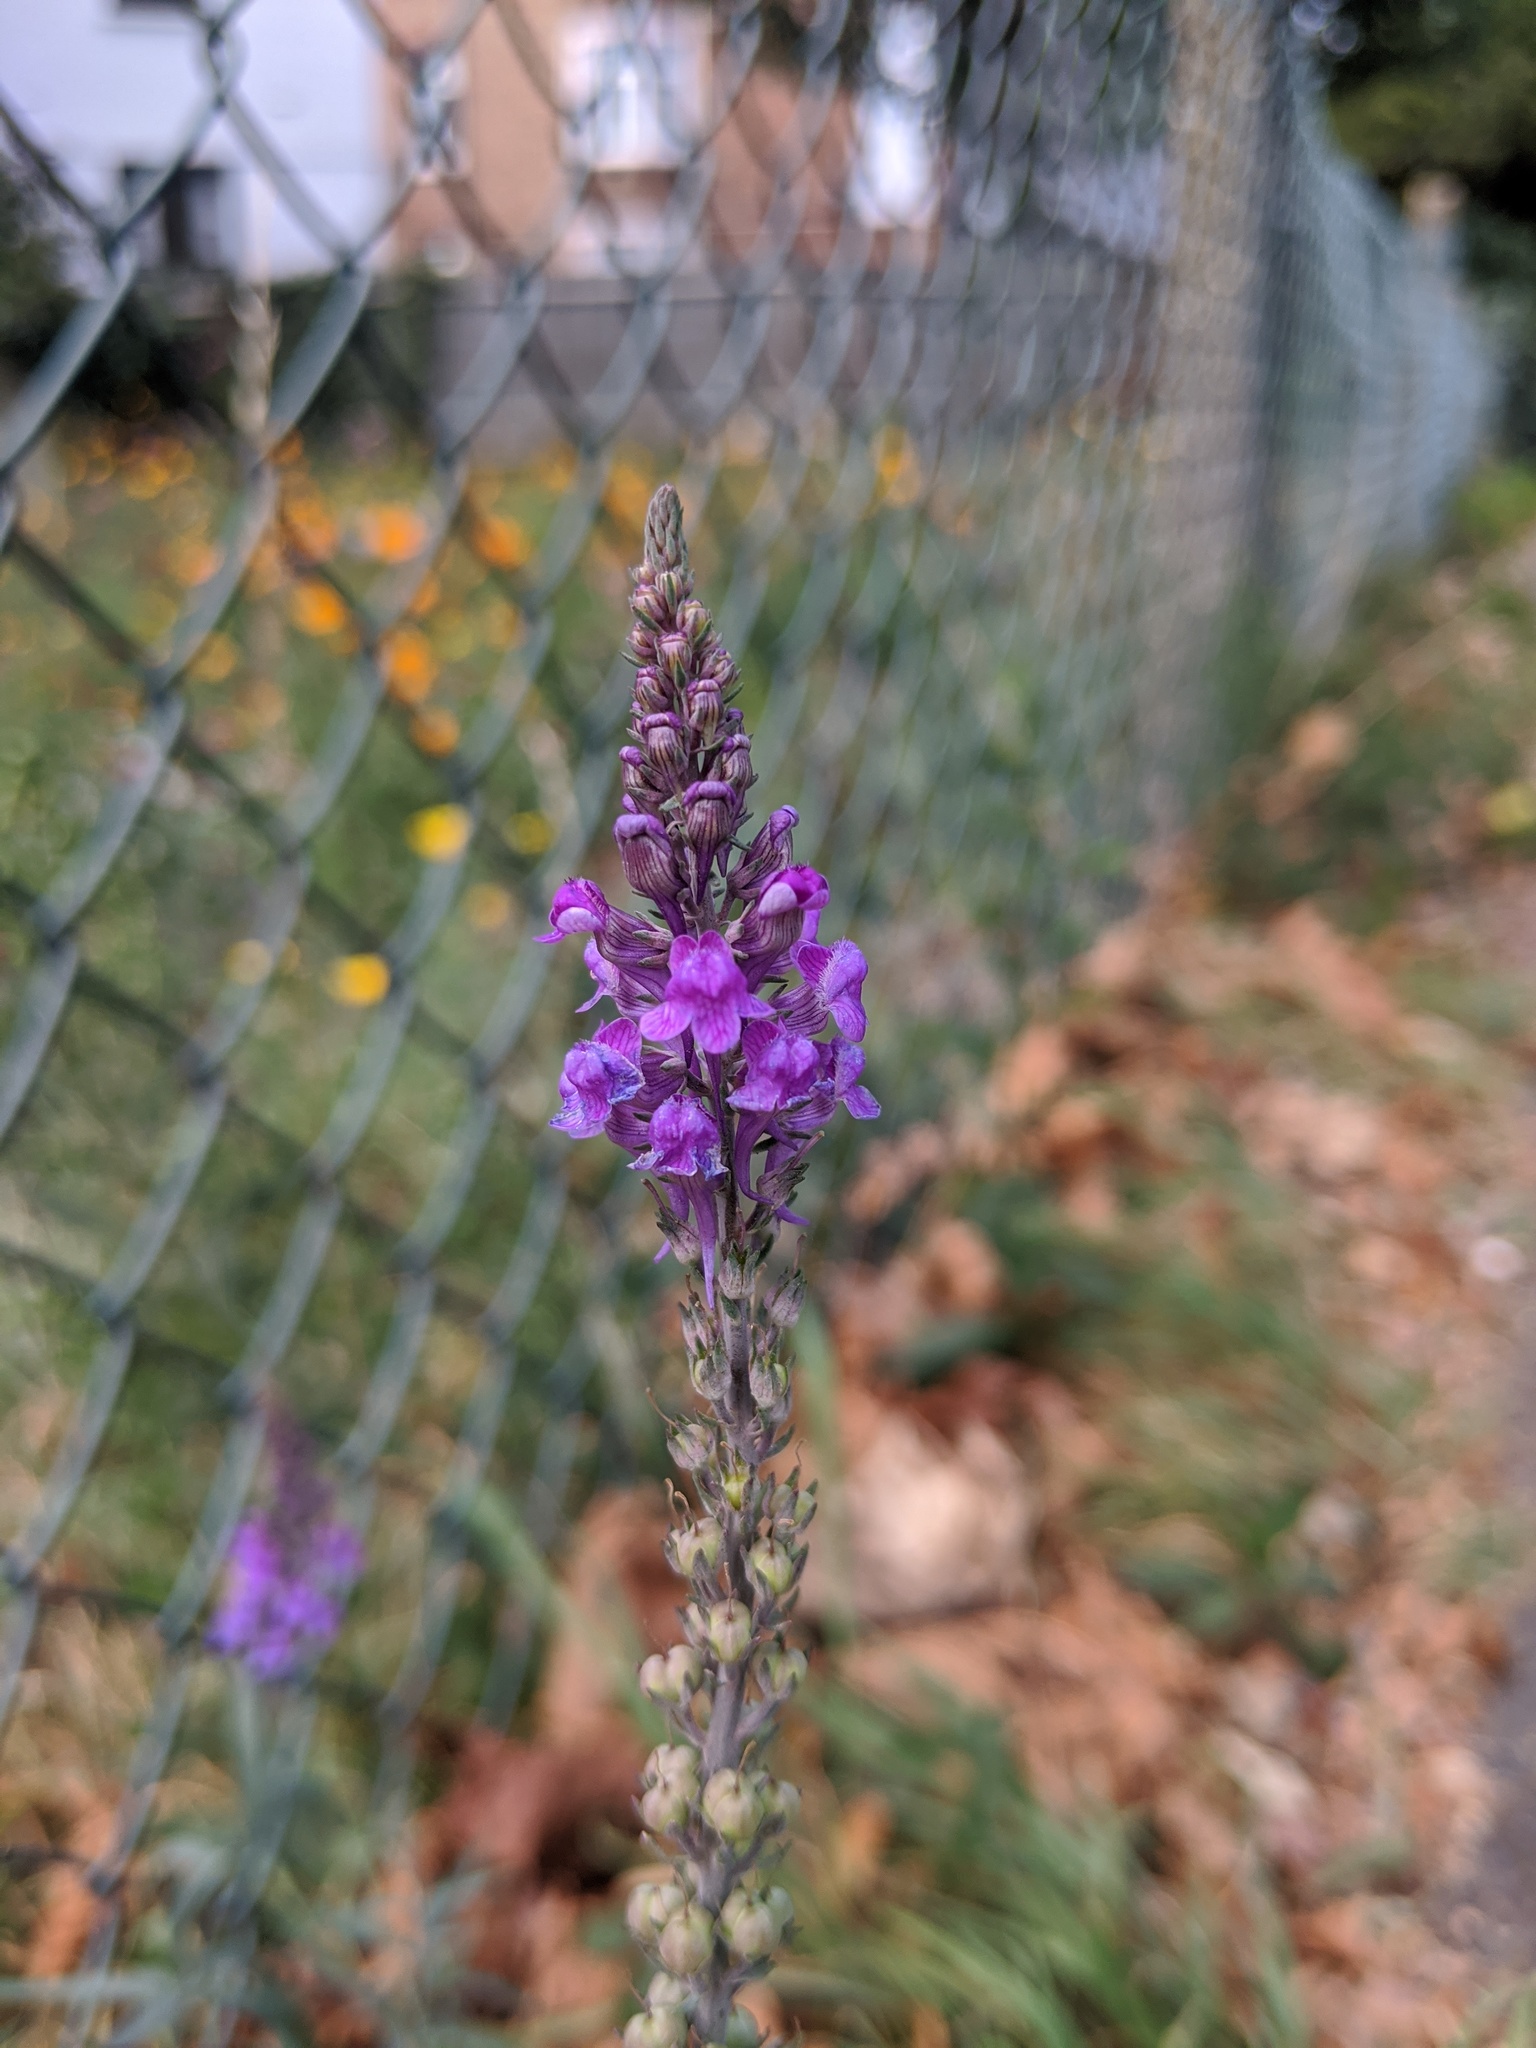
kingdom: Plantae
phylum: Tracheophyta
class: Magnoliopsida
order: Lamiales
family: Plantaginaceae
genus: Linaria
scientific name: Linaria purpurea
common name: Purple toadflax
